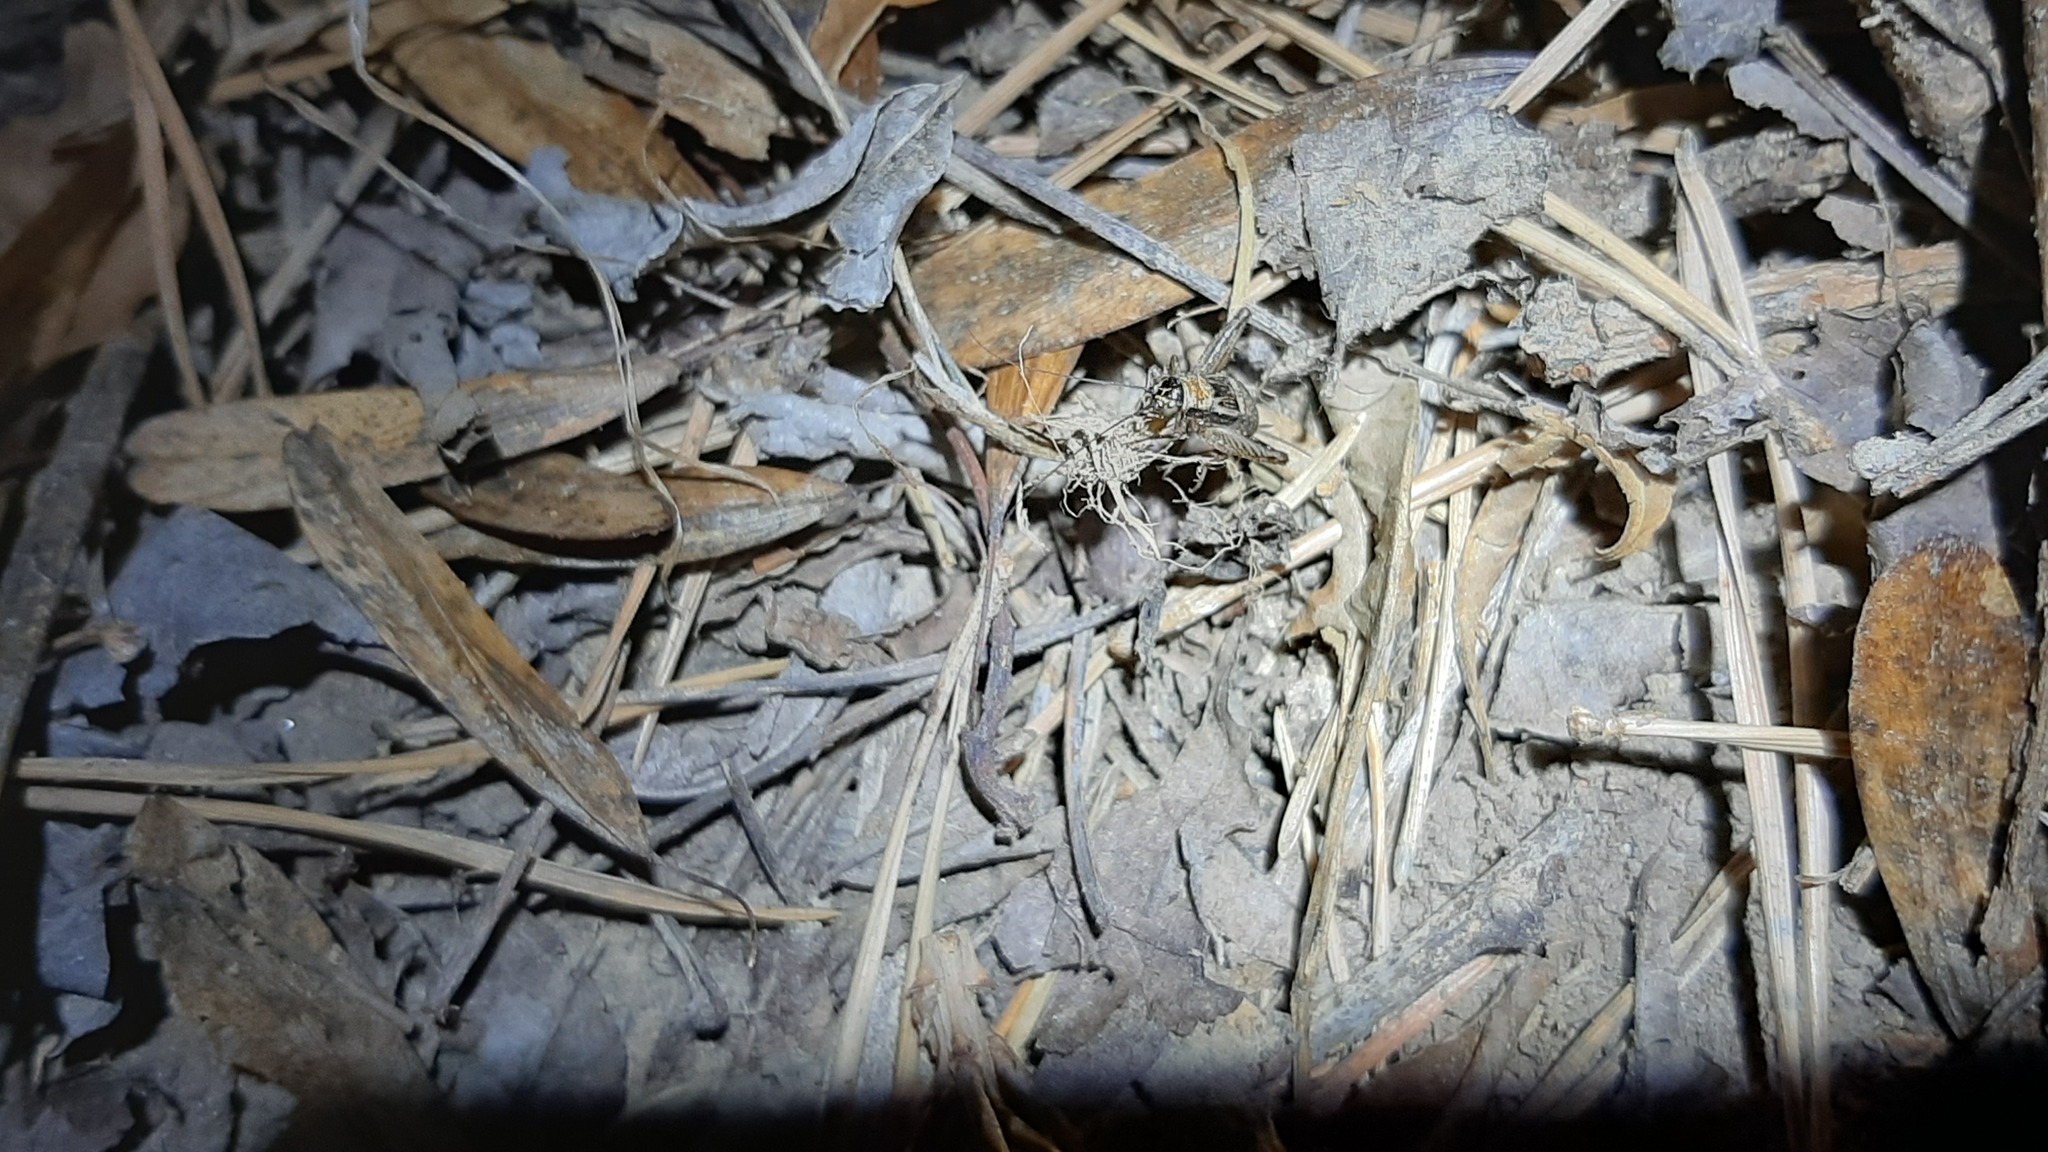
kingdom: Animalia
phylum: Arthropoda
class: Insecta
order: Orthoptera
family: Trigonidiidae
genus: Nemobius
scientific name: Nemobius sylvestris
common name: Wood-cricket
